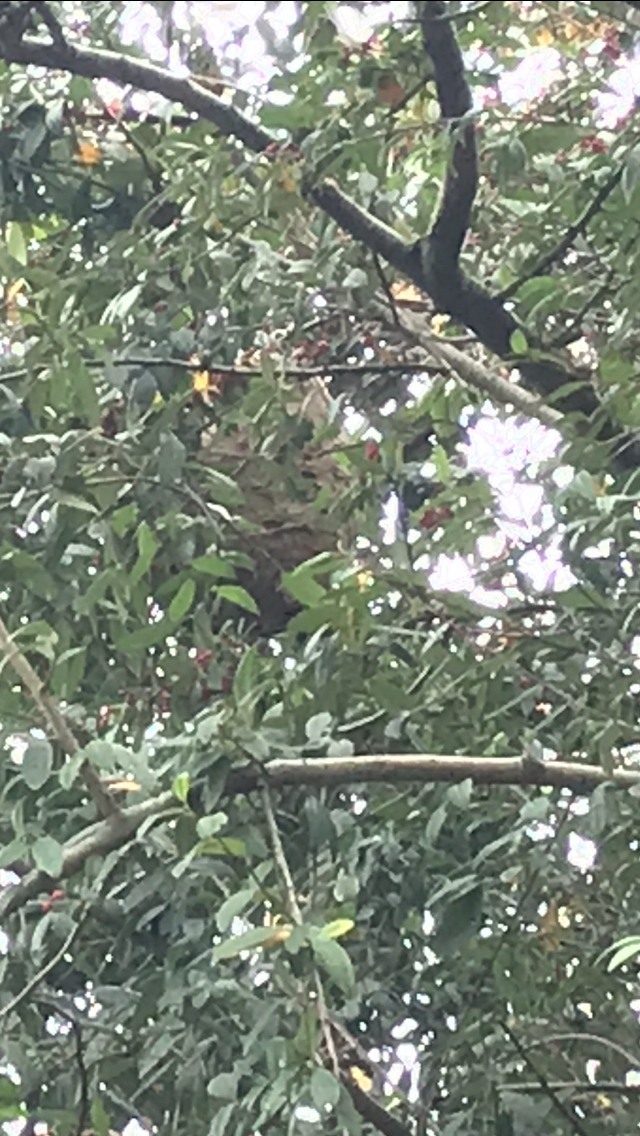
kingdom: Animalia
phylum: Arthropoda
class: Insecta
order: Hymenoptera
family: Vespidae
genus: Vespa
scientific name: Vespa velutina
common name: Asian hornet
